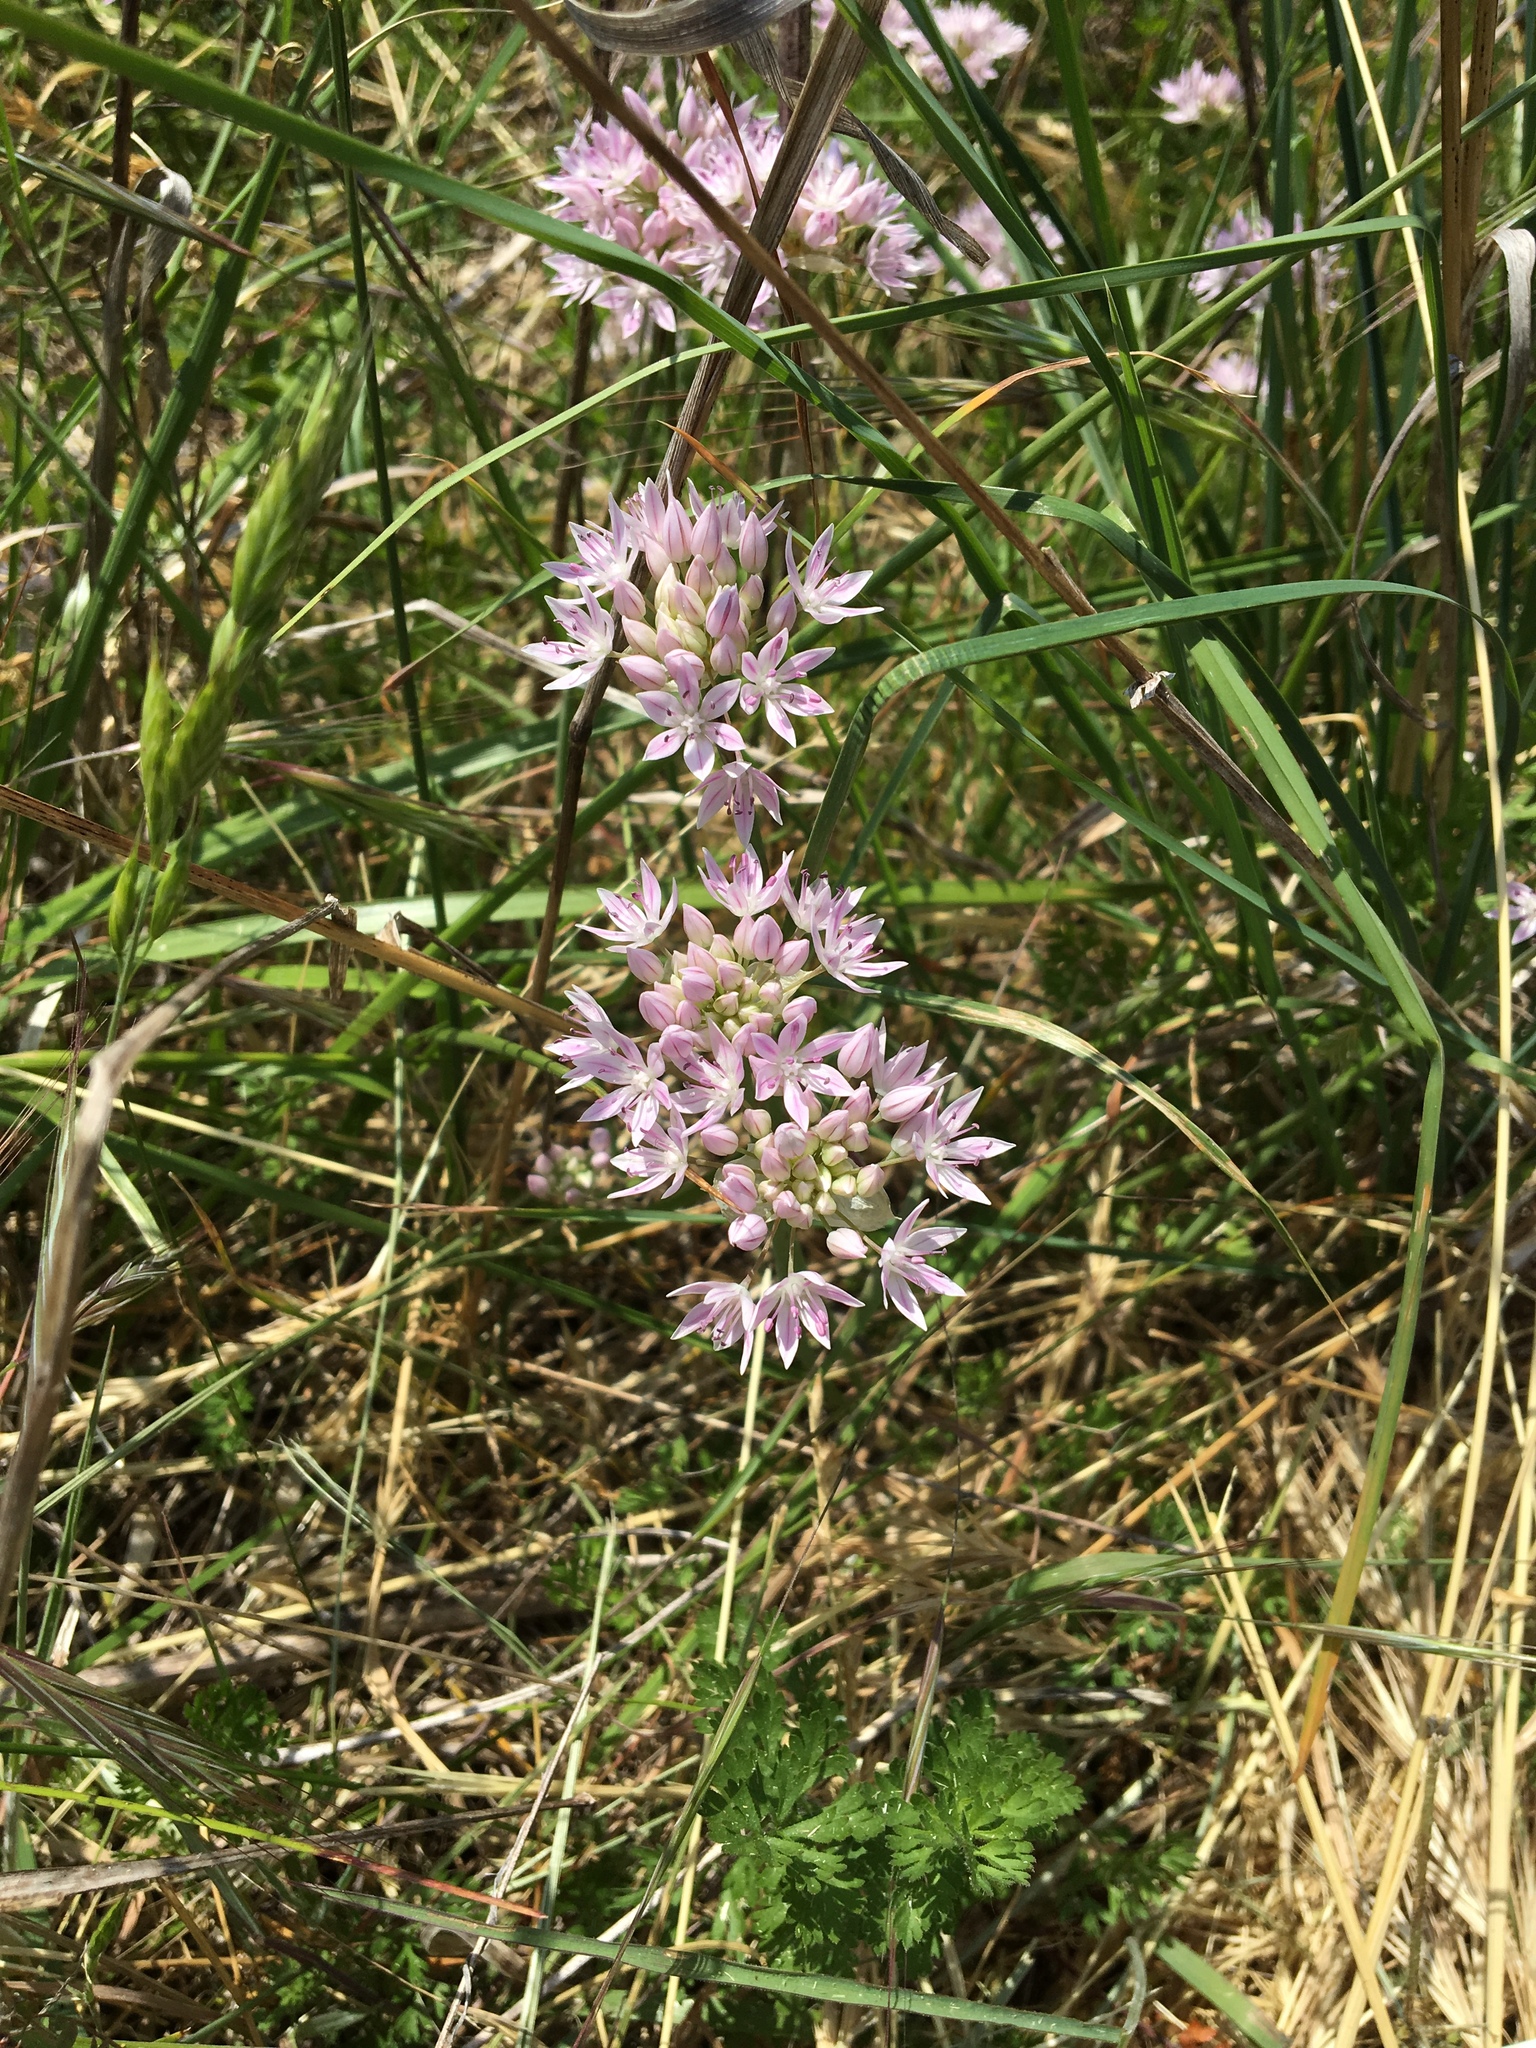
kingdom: Plantae
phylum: Tracheophyta
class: Liliopsida
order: Asparagales
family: Amaryllidaceae
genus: Allium
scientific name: Allium amplectens
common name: Narrow-leaved onion
